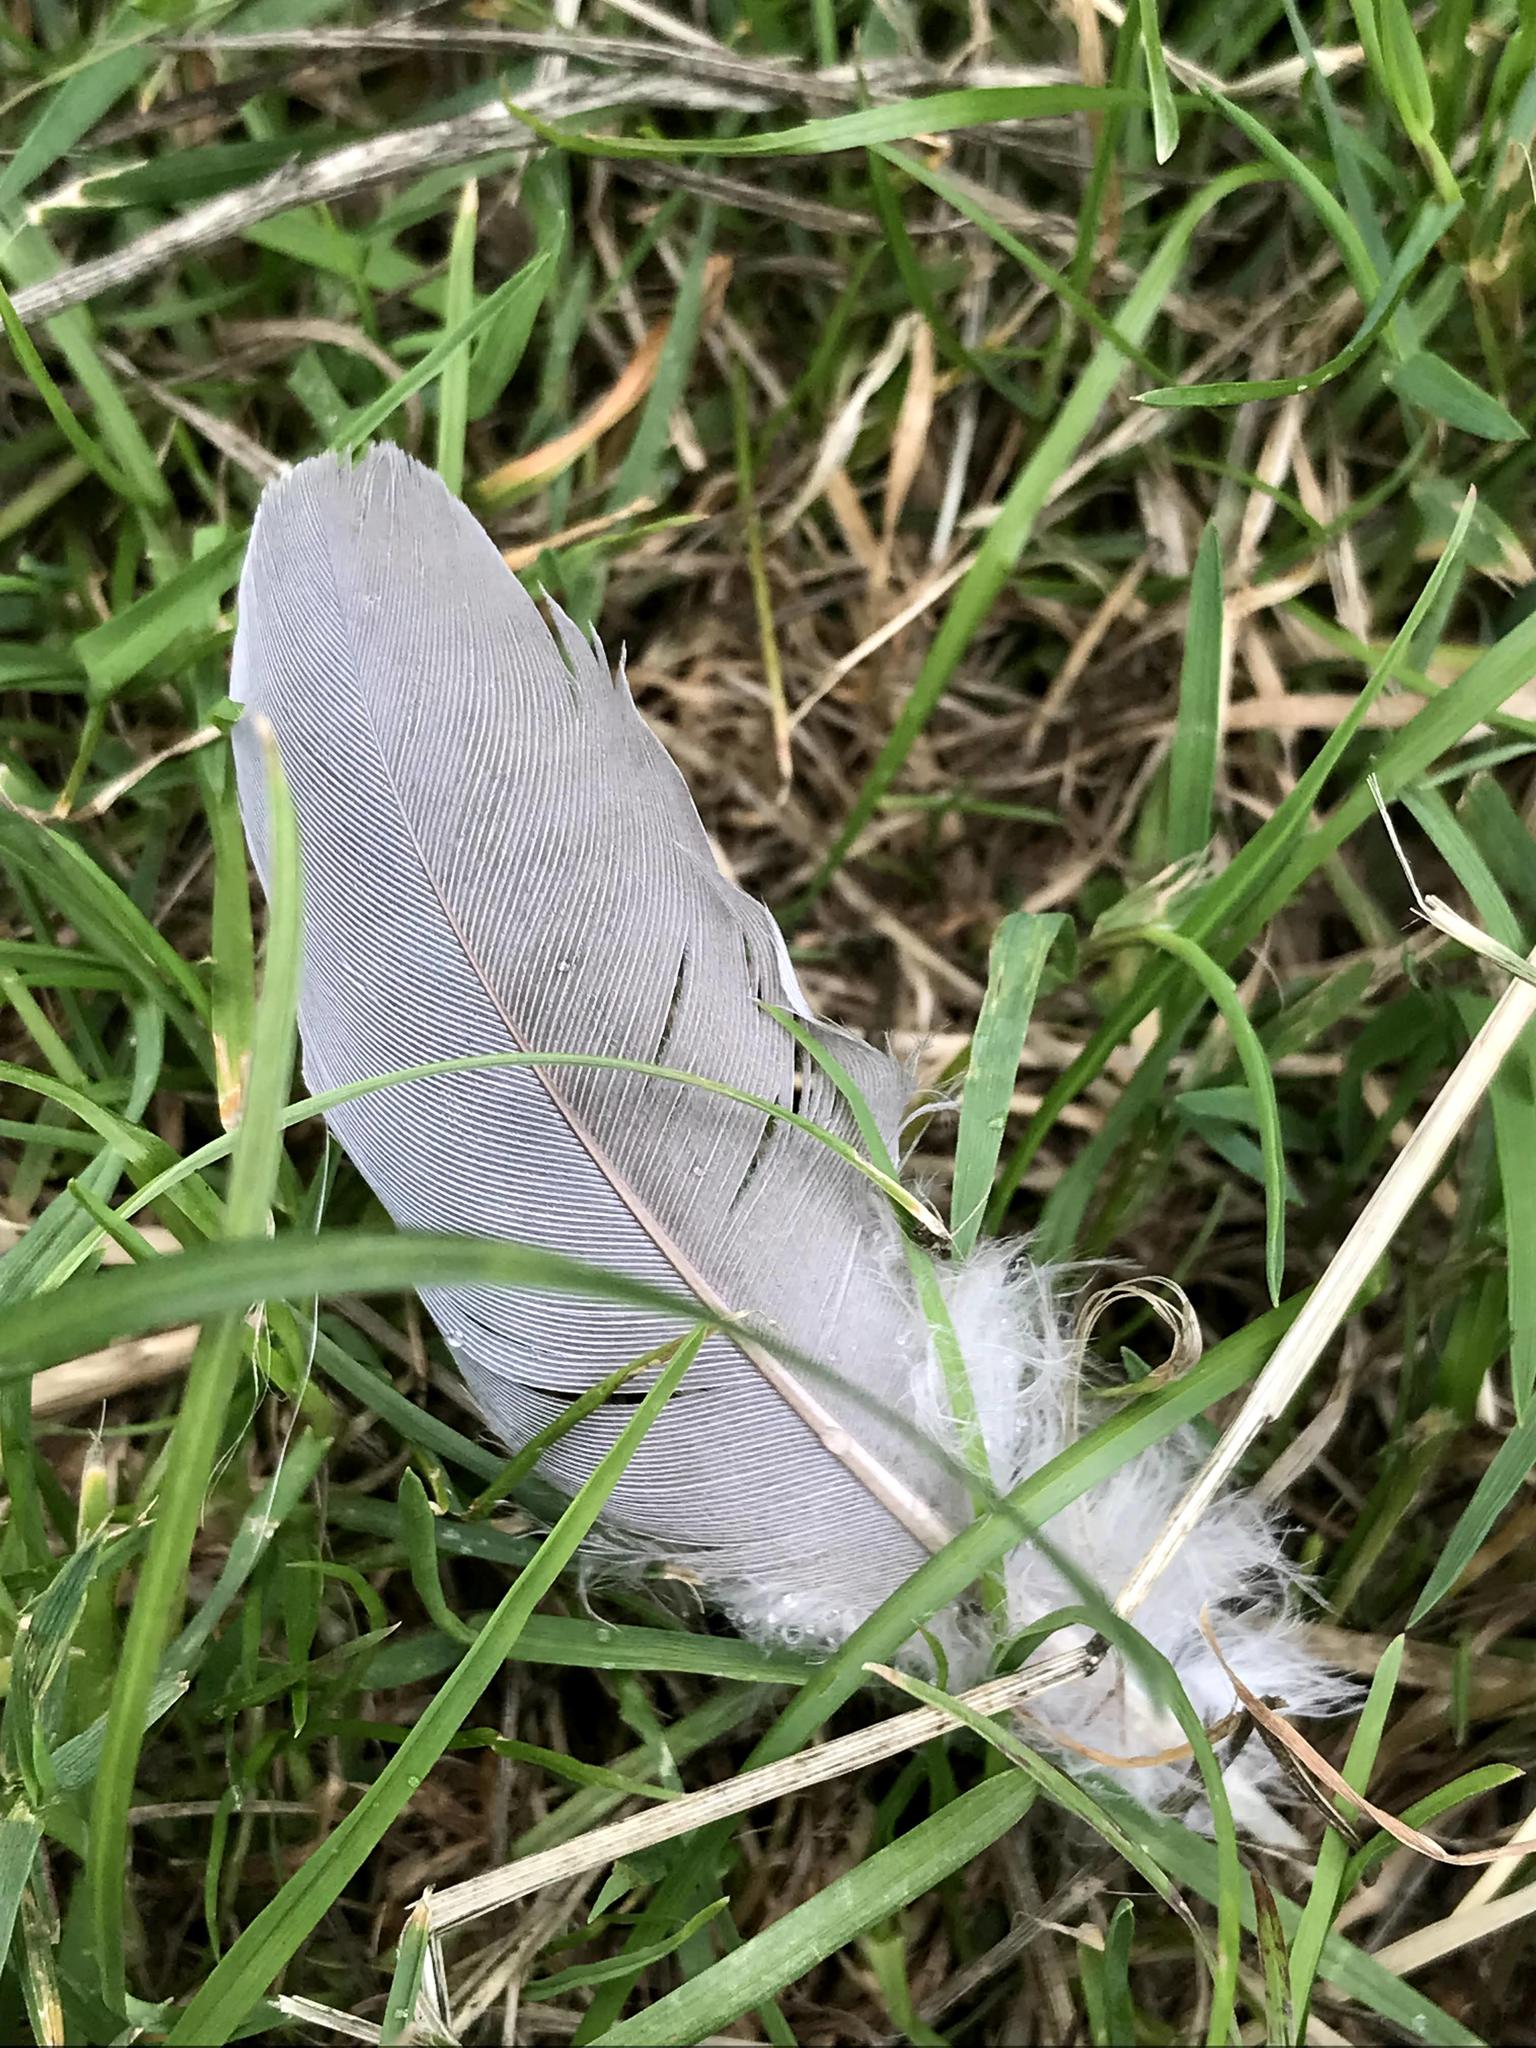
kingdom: Animalia
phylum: Chordata
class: Aves
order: Columbiformes
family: Columbidae
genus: Columba
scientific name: Columba palumbus
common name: Common wood pigeon
